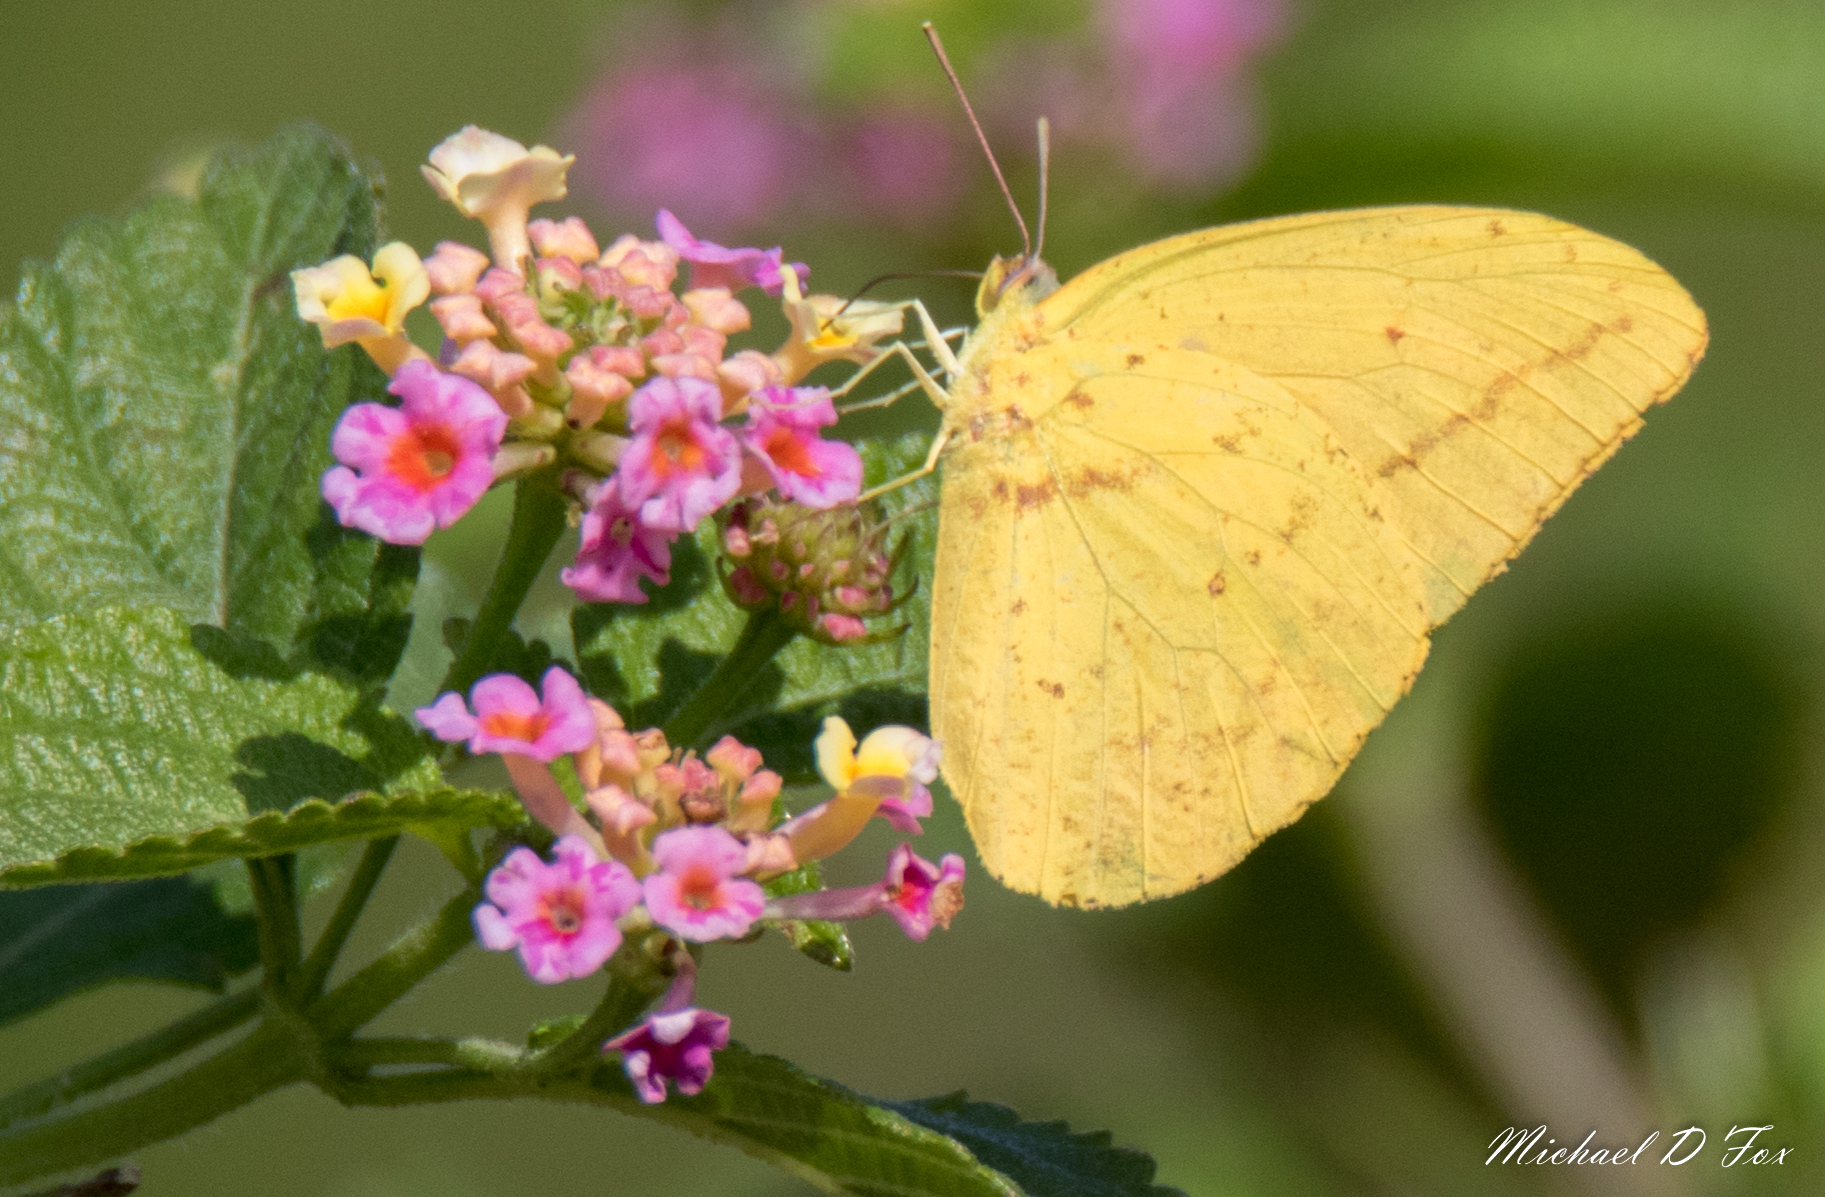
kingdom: Animalia
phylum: Arthropoda
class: Insecta
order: Lepidoptera
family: Pieridae
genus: Phoebis
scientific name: Phoebis agarithe
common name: Large orange sulphur
